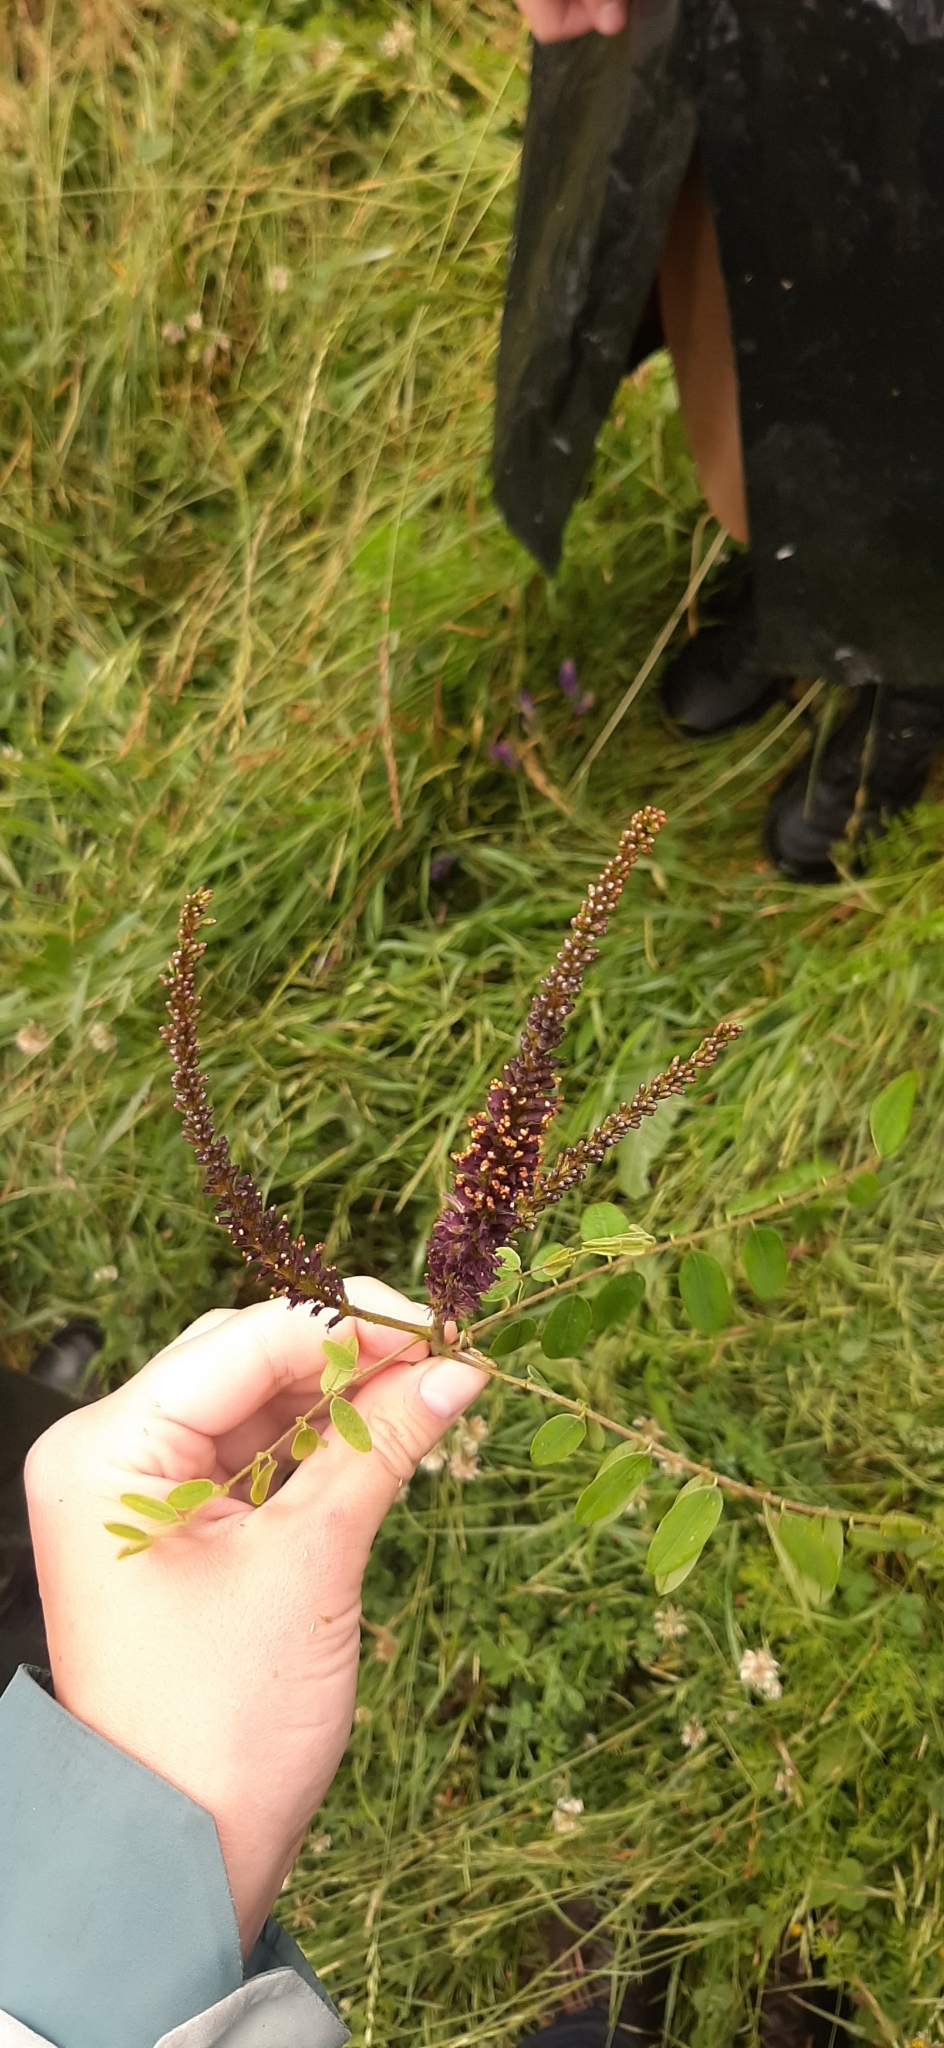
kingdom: Plantae
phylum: Tracheophyta
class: Magnoliopsida
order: Fabales
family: Fabaceae
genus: Amorpha
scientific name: Amorpha fruticosa
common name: False indigo
